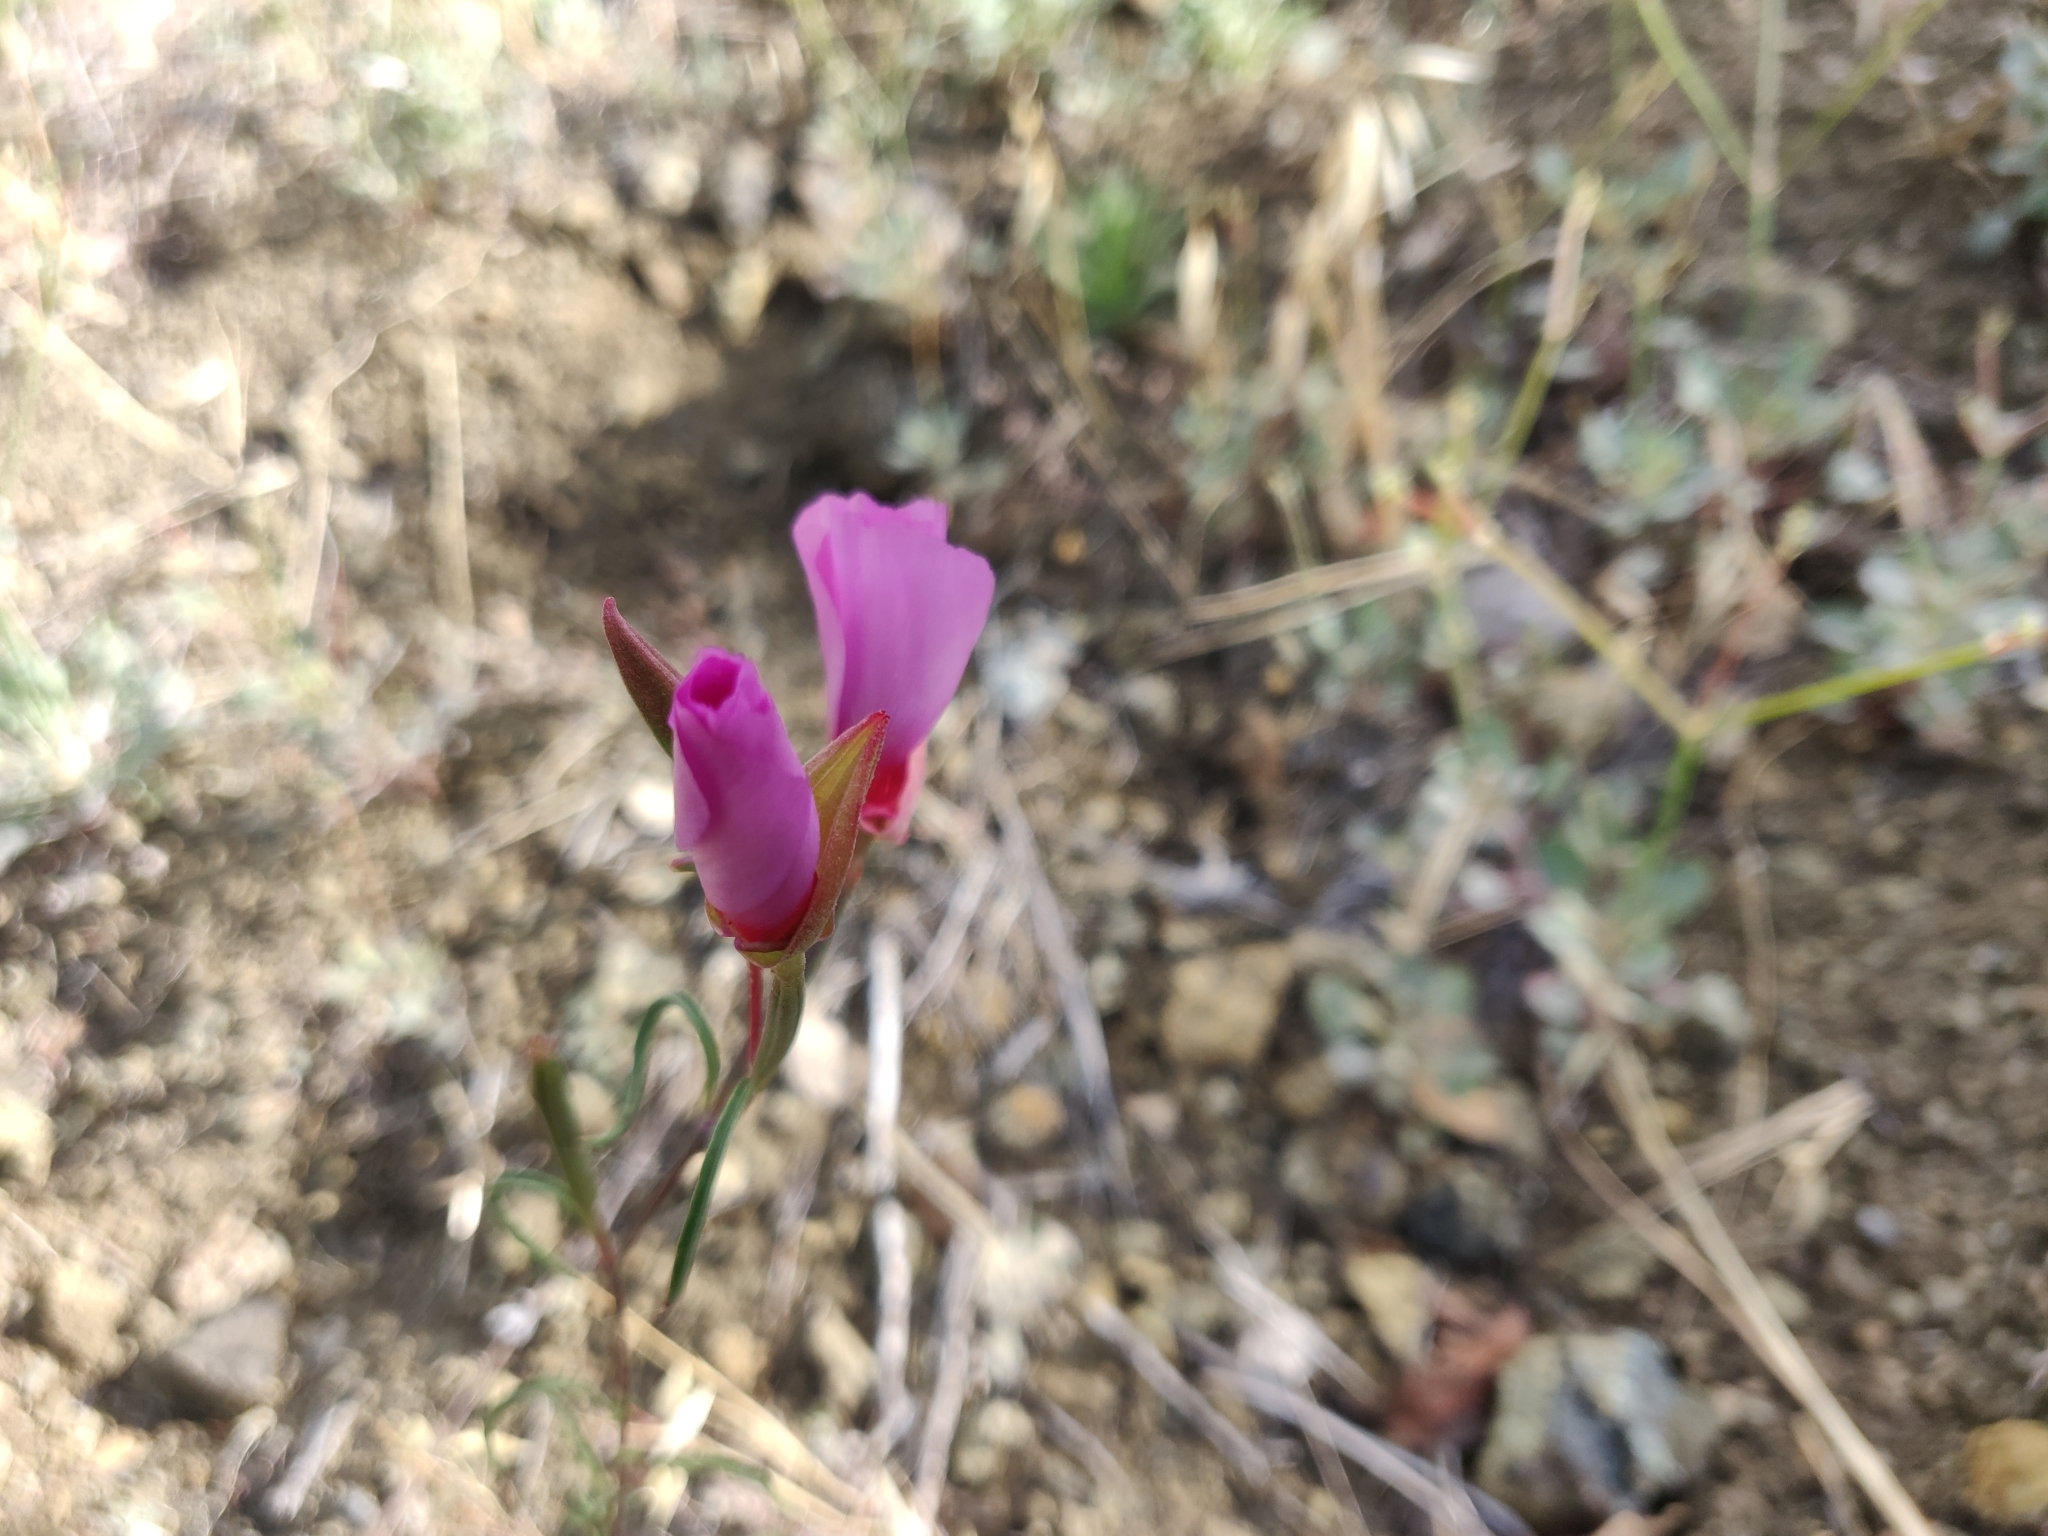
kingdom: Plantae
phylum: Tracheophyta
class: Magnoliopsida
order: Myrtales
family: Onagraceae
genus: Clarkia
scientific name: Clarkia rubicunda
